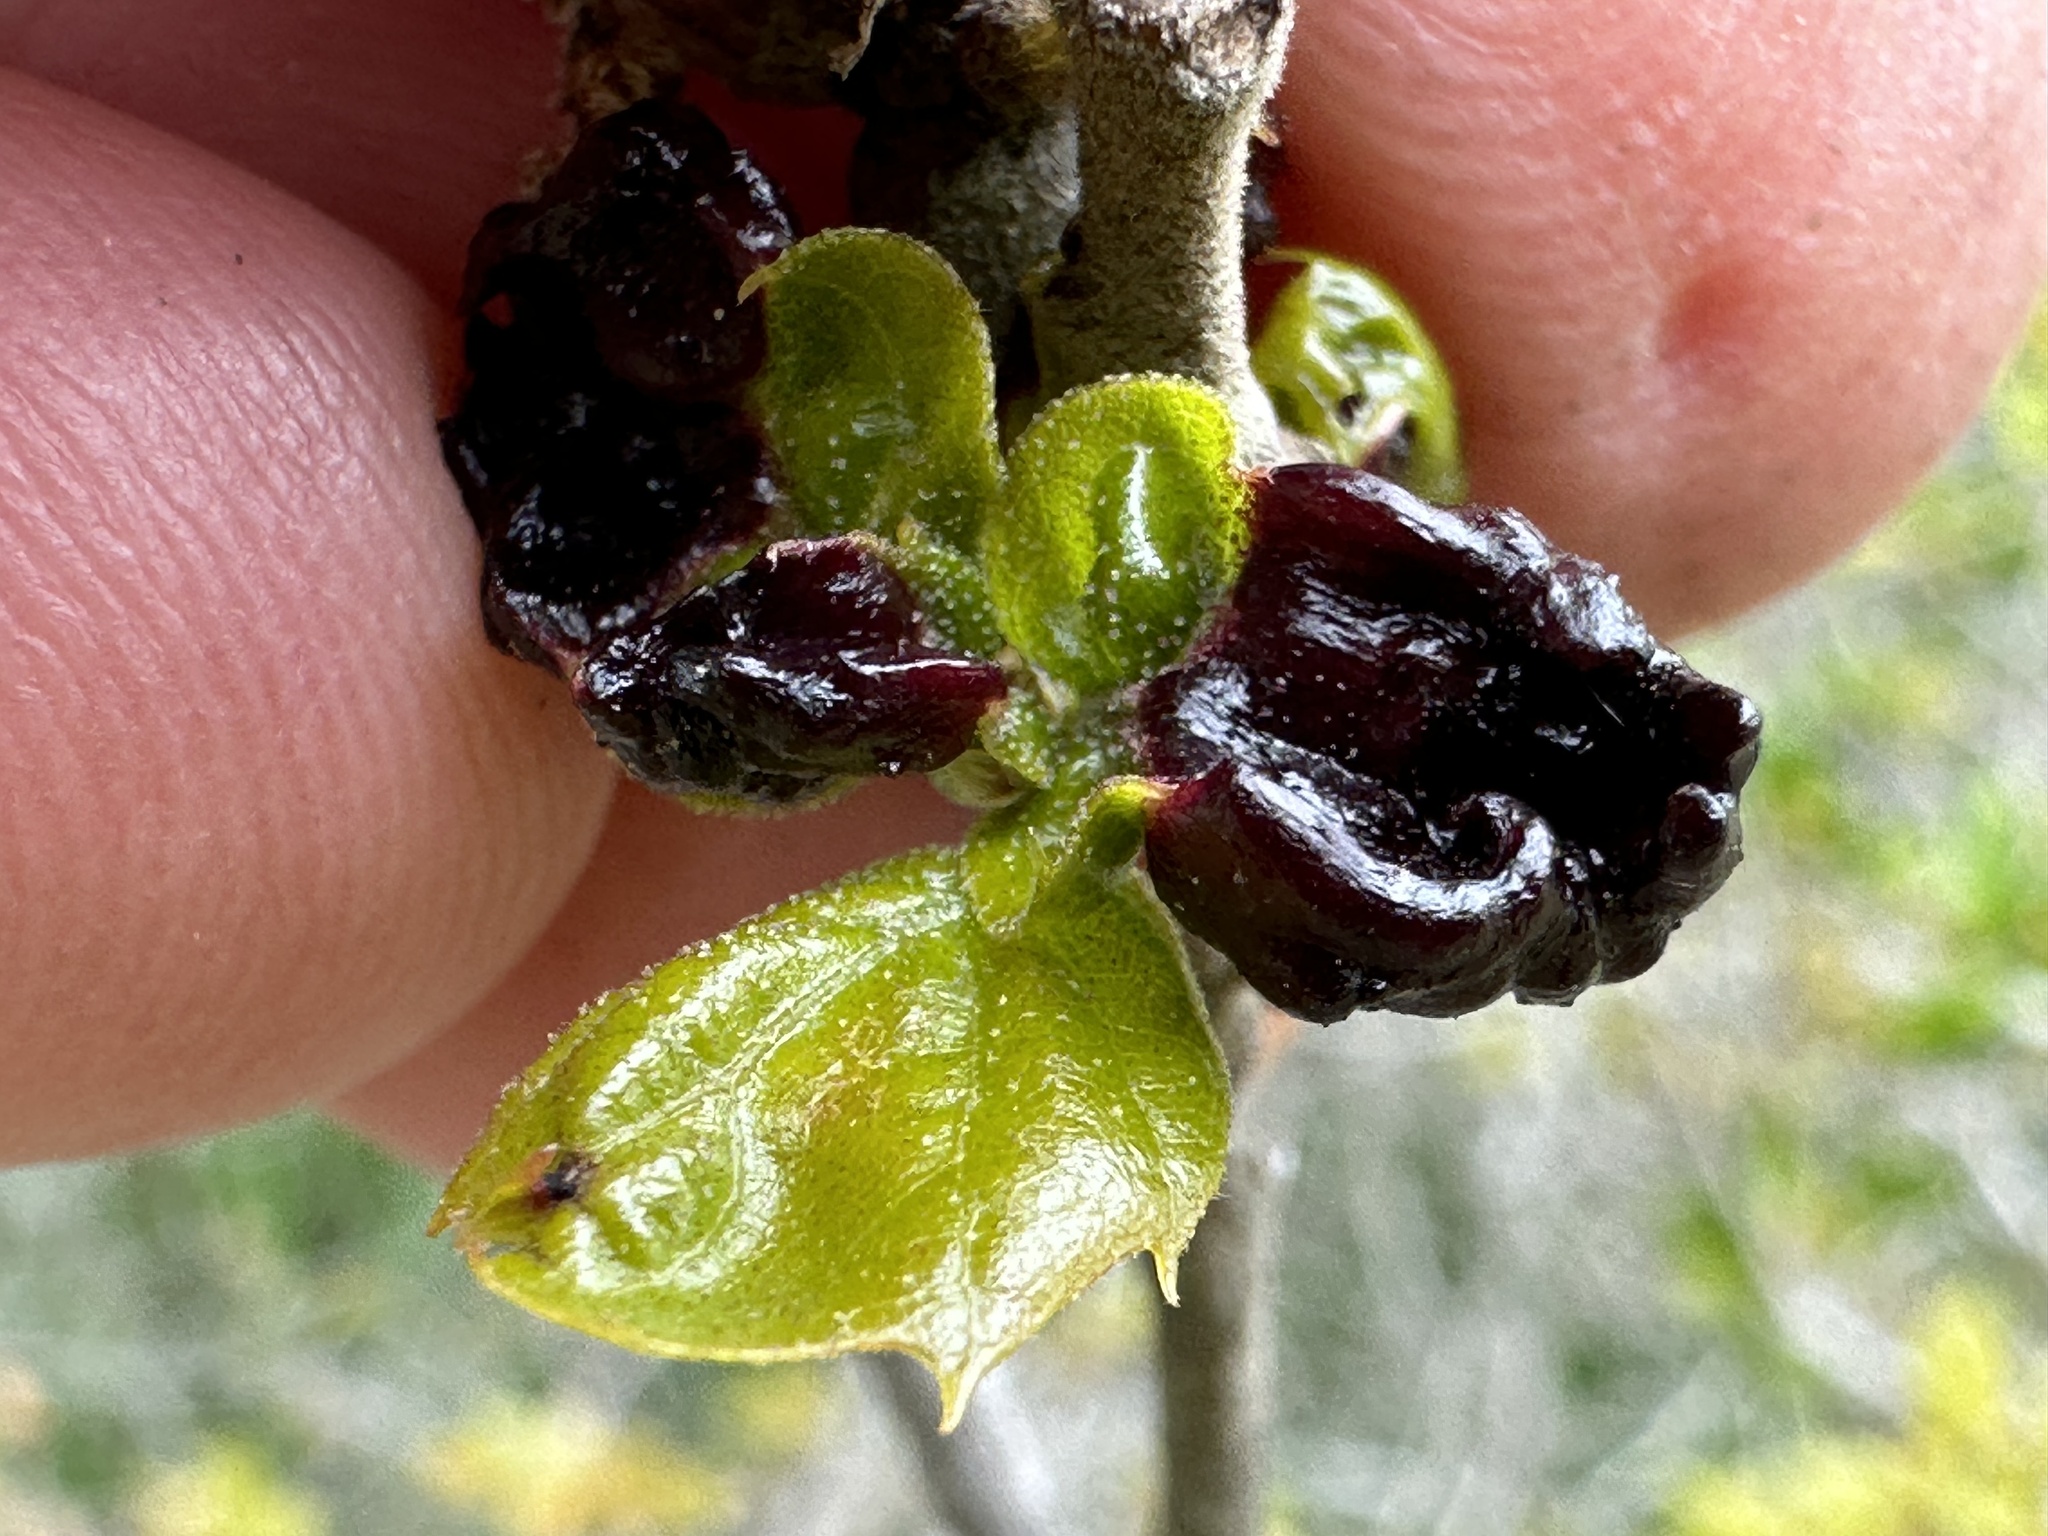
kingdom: Animalia
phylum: Arthropoda
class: Insecta
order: Hymenoptera
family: Cynipidae
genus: Dryocosmus
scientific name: Dryocosmus
